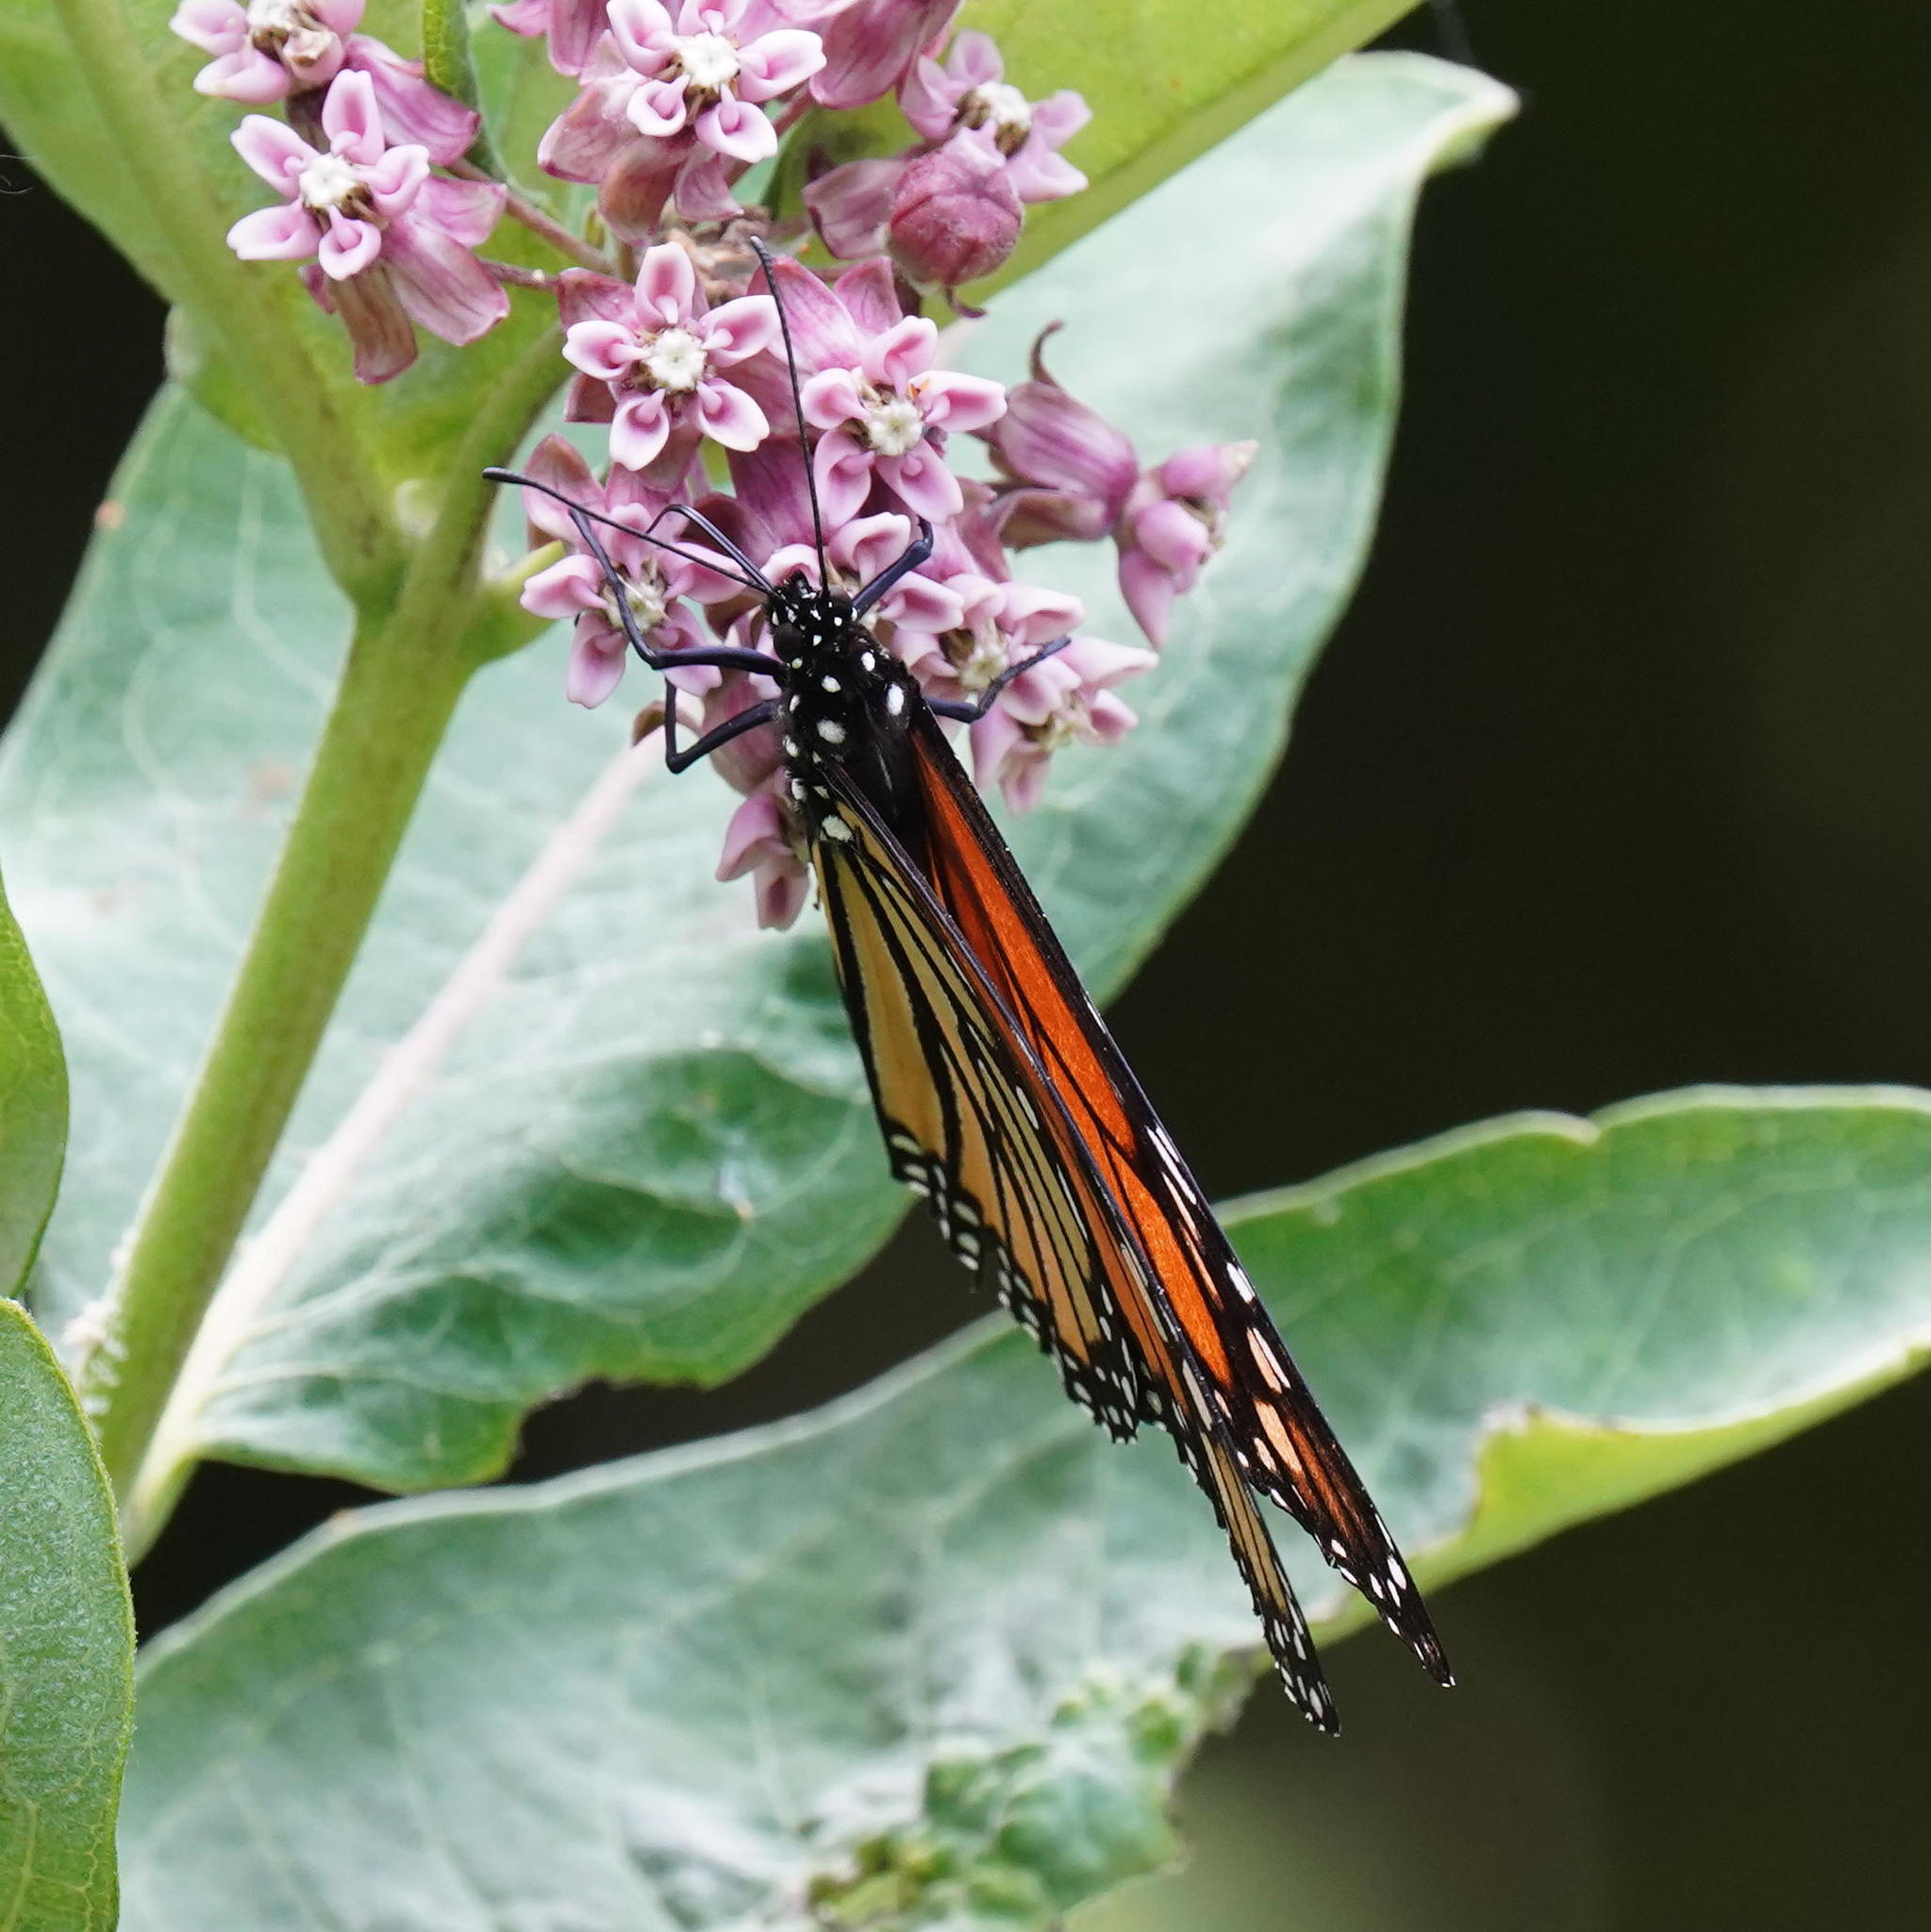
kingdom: Animalia
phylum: Arthropoda
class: Insecta
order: Lepidoptera
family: Nymphalidae
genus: Danaus
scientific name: Danaus plexippus
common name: Monarch
